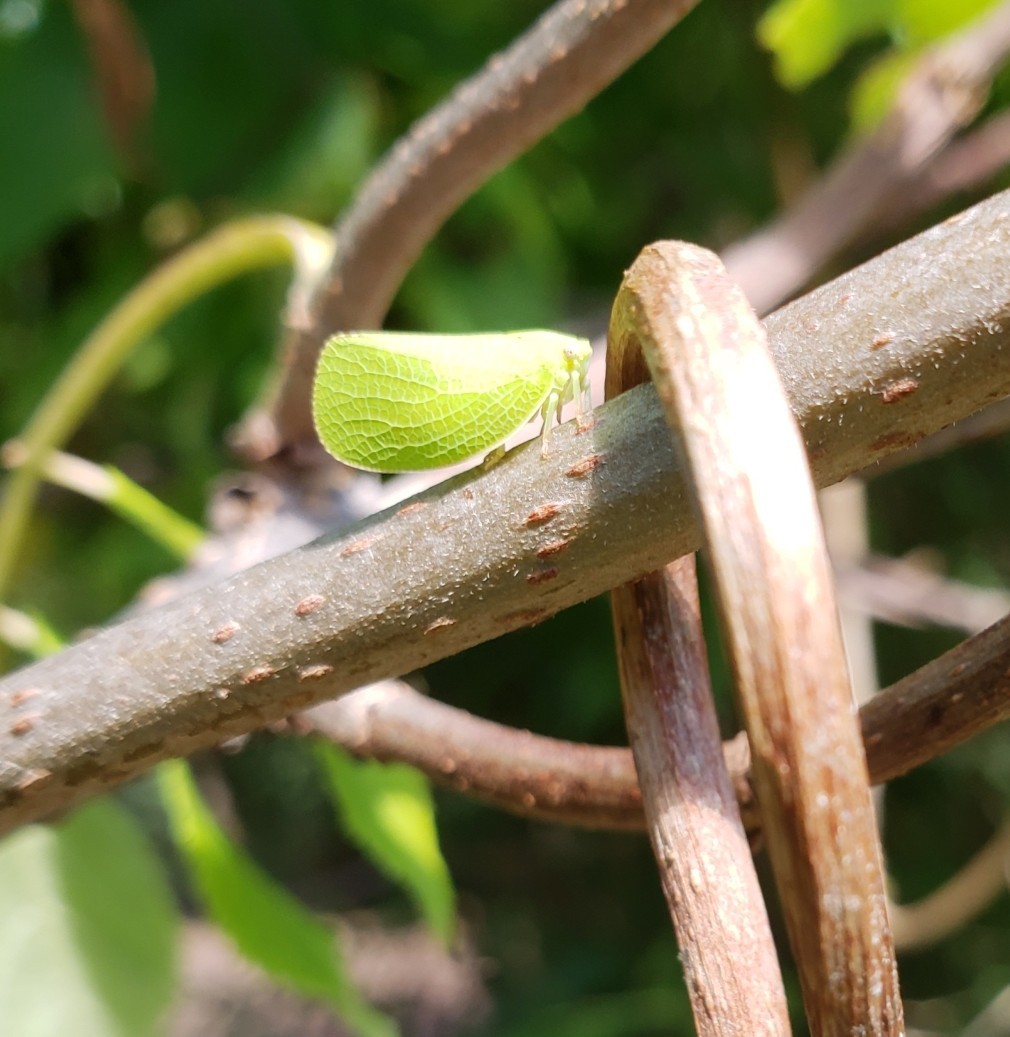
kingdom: Animalia
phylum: Arthropoda
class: Insecta
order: Hemiptera
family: Acanaloniidae
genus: Acanalonia
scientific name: Acanalonia conica
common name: Green cone-headed planthopper
